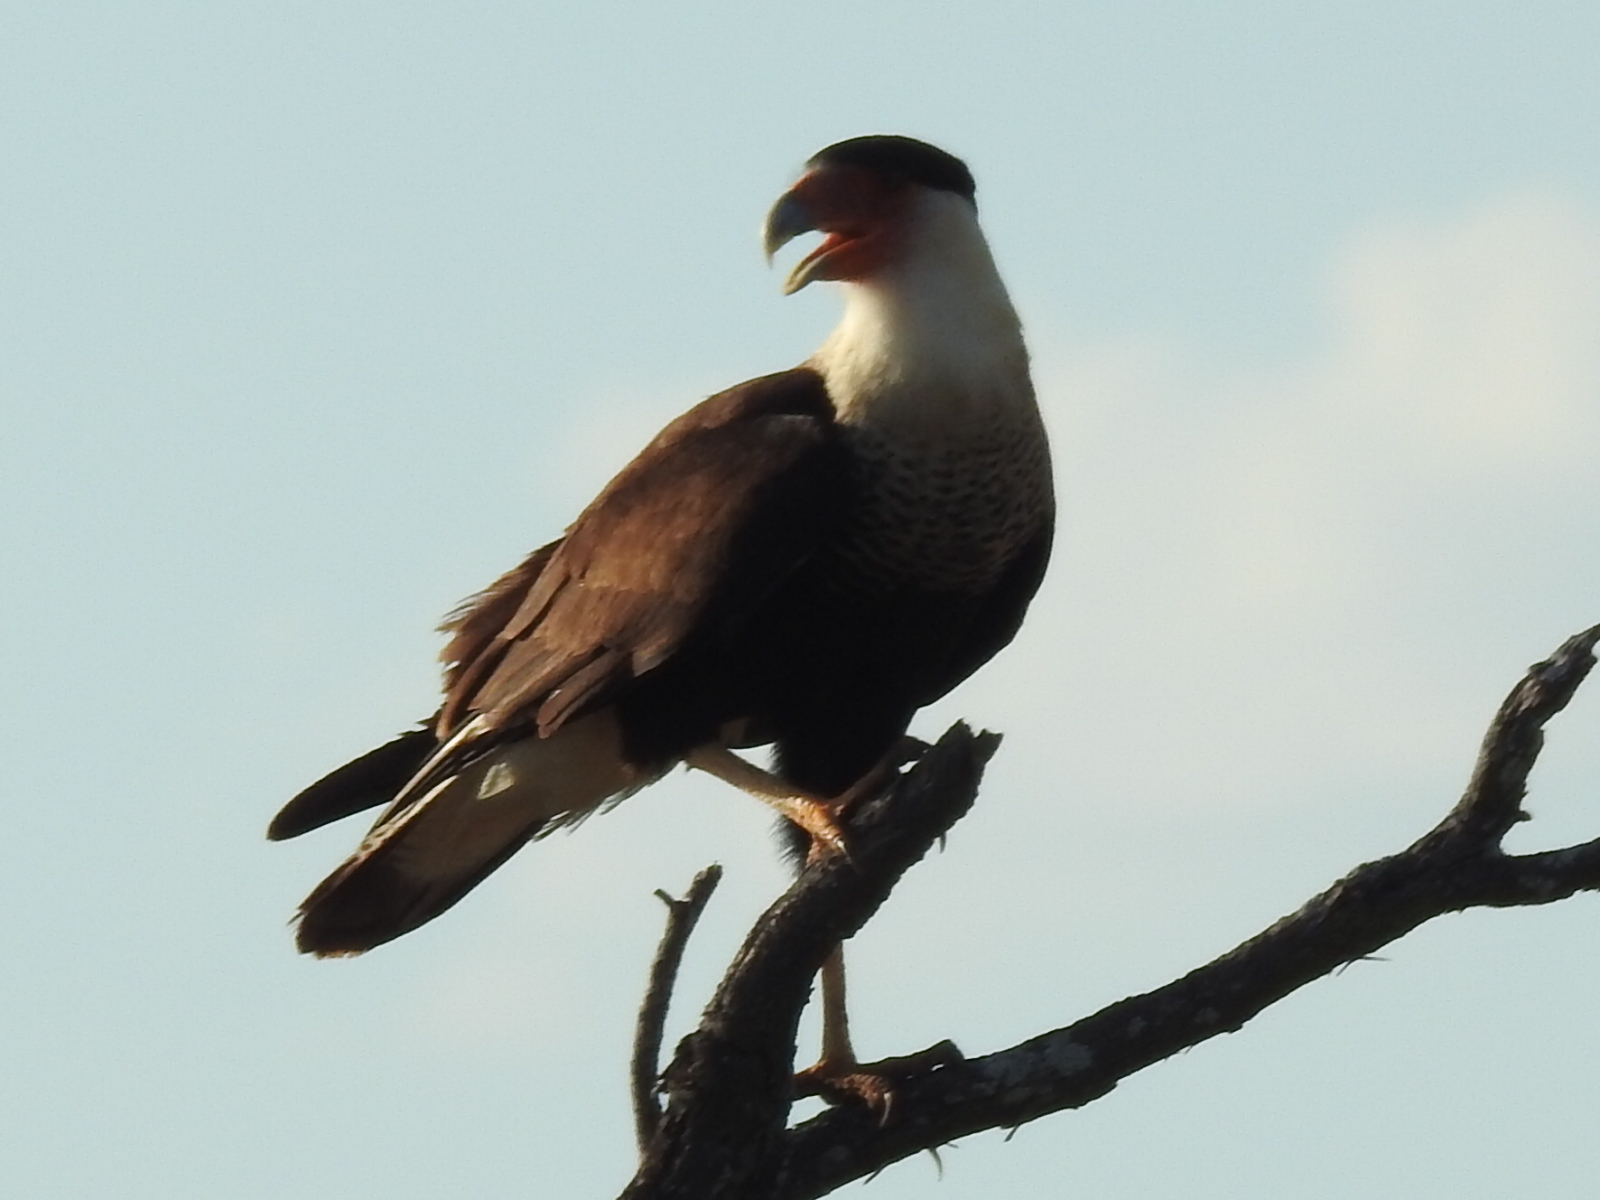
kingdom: Animalia
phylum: Chordata
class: Aves
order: Falconiformes
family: Falconidae
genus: Caracara
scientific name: Caracara plancus
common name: Southern caracara
